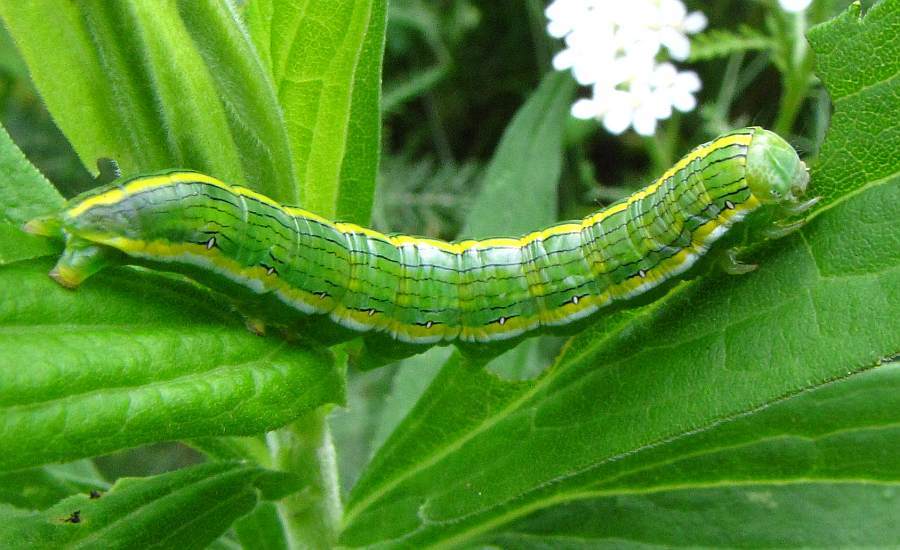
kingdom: Animalia
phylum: Arthropoda
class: Insecta
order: Lepidoptera
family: Noctuidae
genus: Cucullia
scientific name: Cucullia asteroides
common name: Asteroid moth
